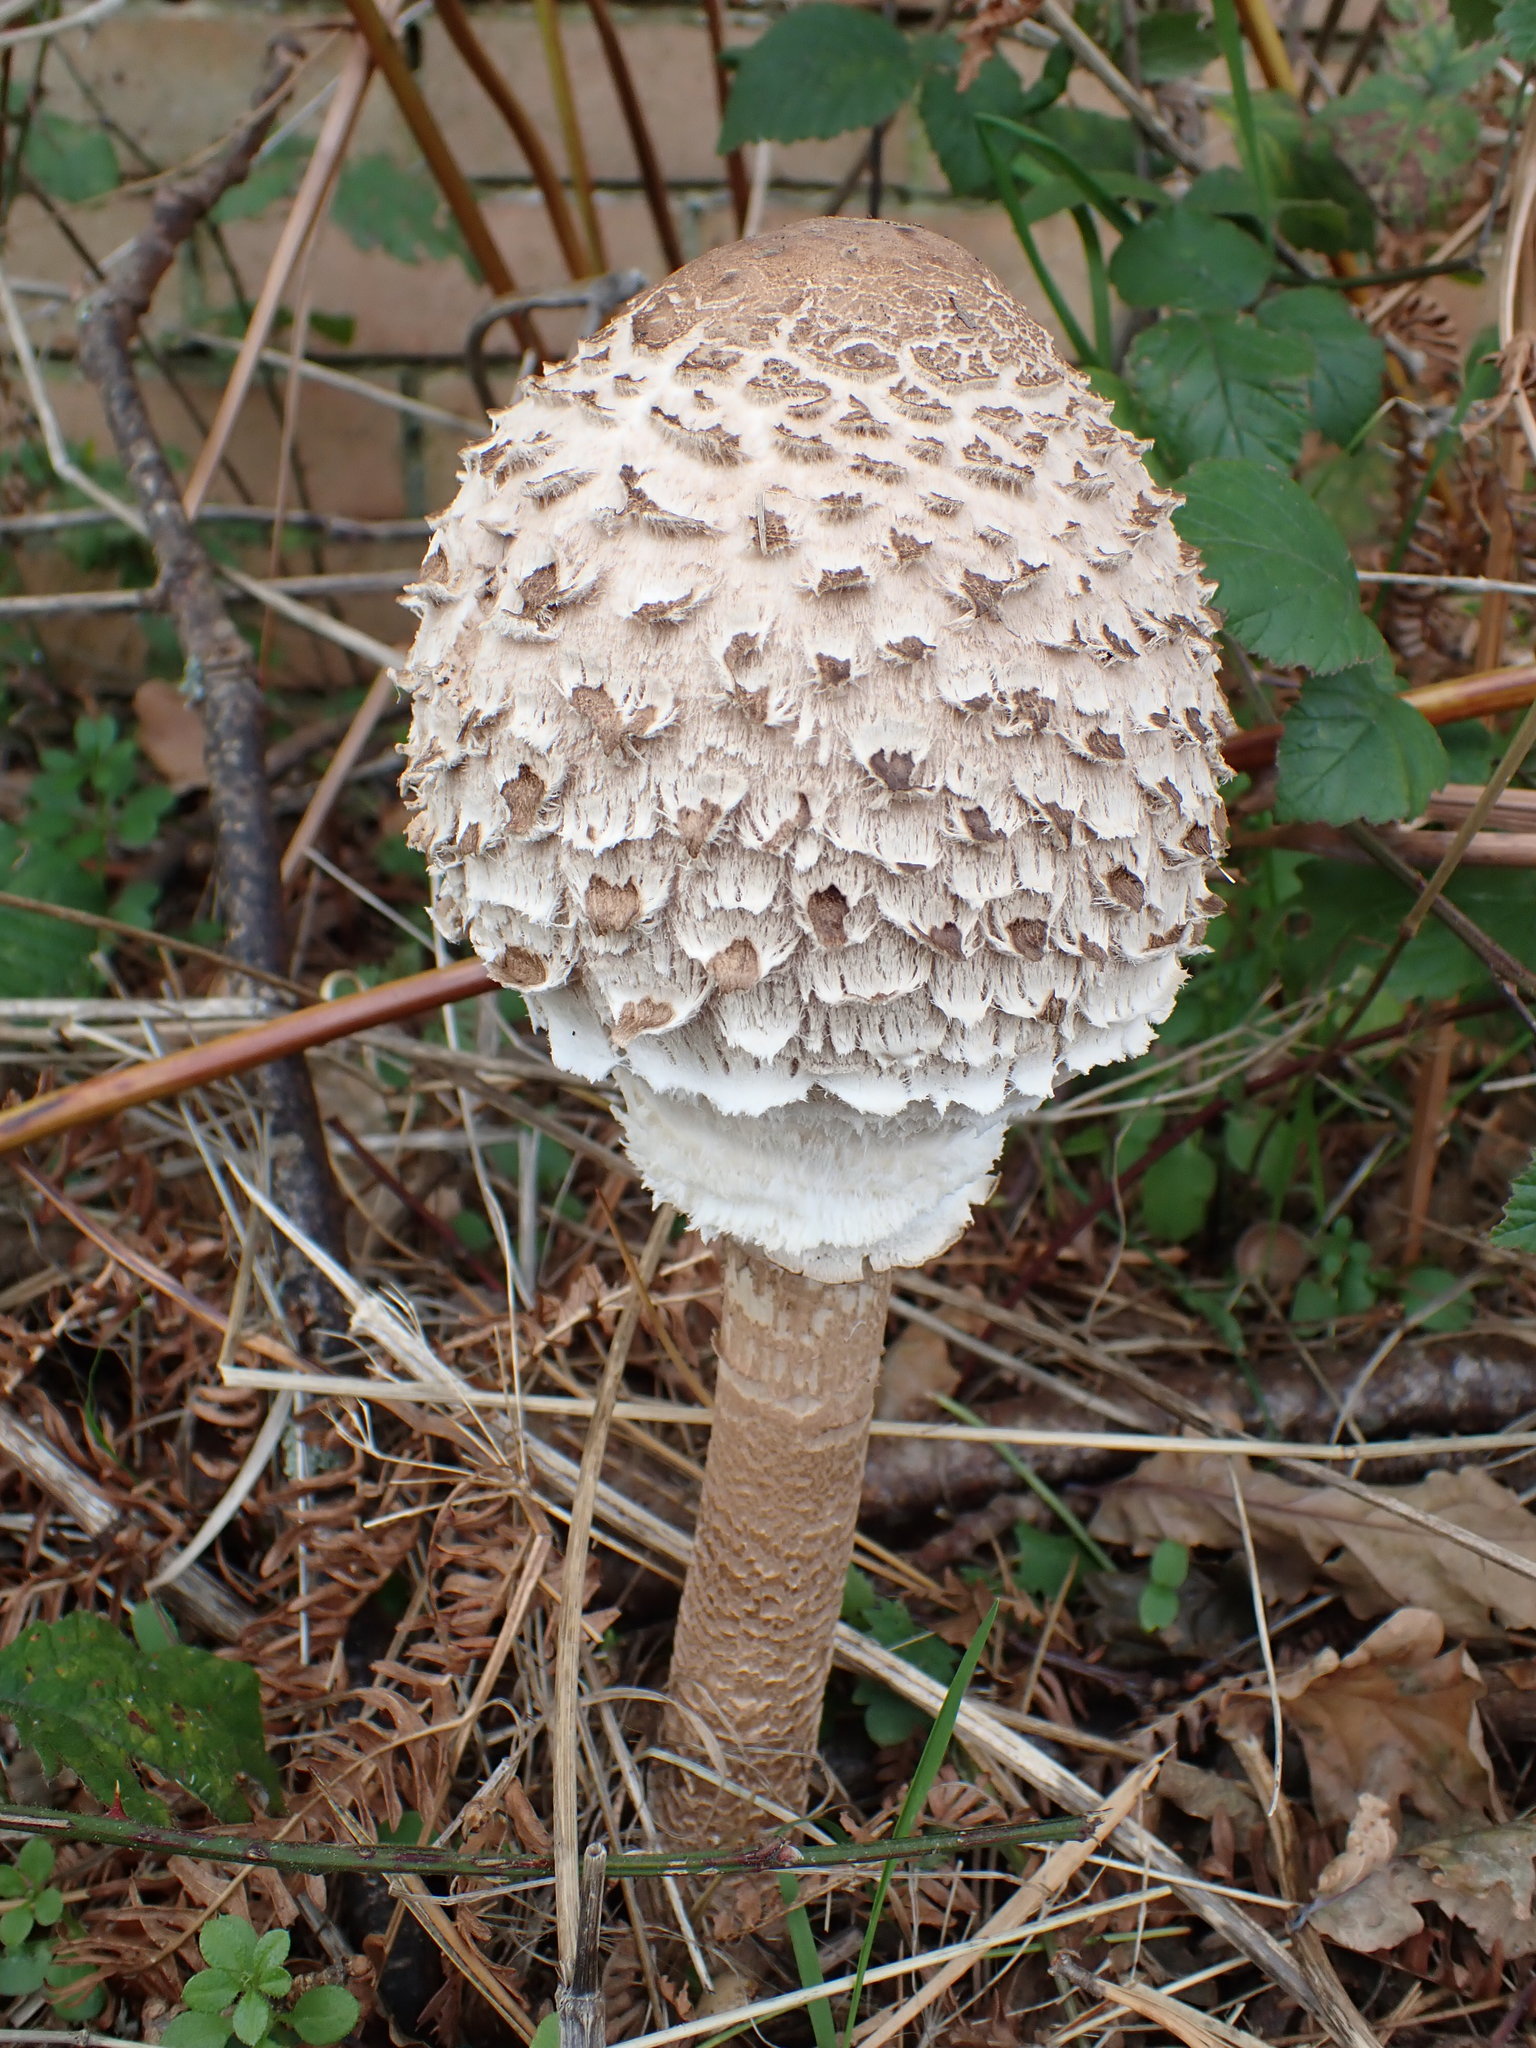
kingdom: Fungi
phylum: Basidiomycota
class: Agaricomycetes
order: Agaricales
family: Agaricaceae
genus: Macrolepiota
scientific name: Macrolepiota procera
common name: Parasol
